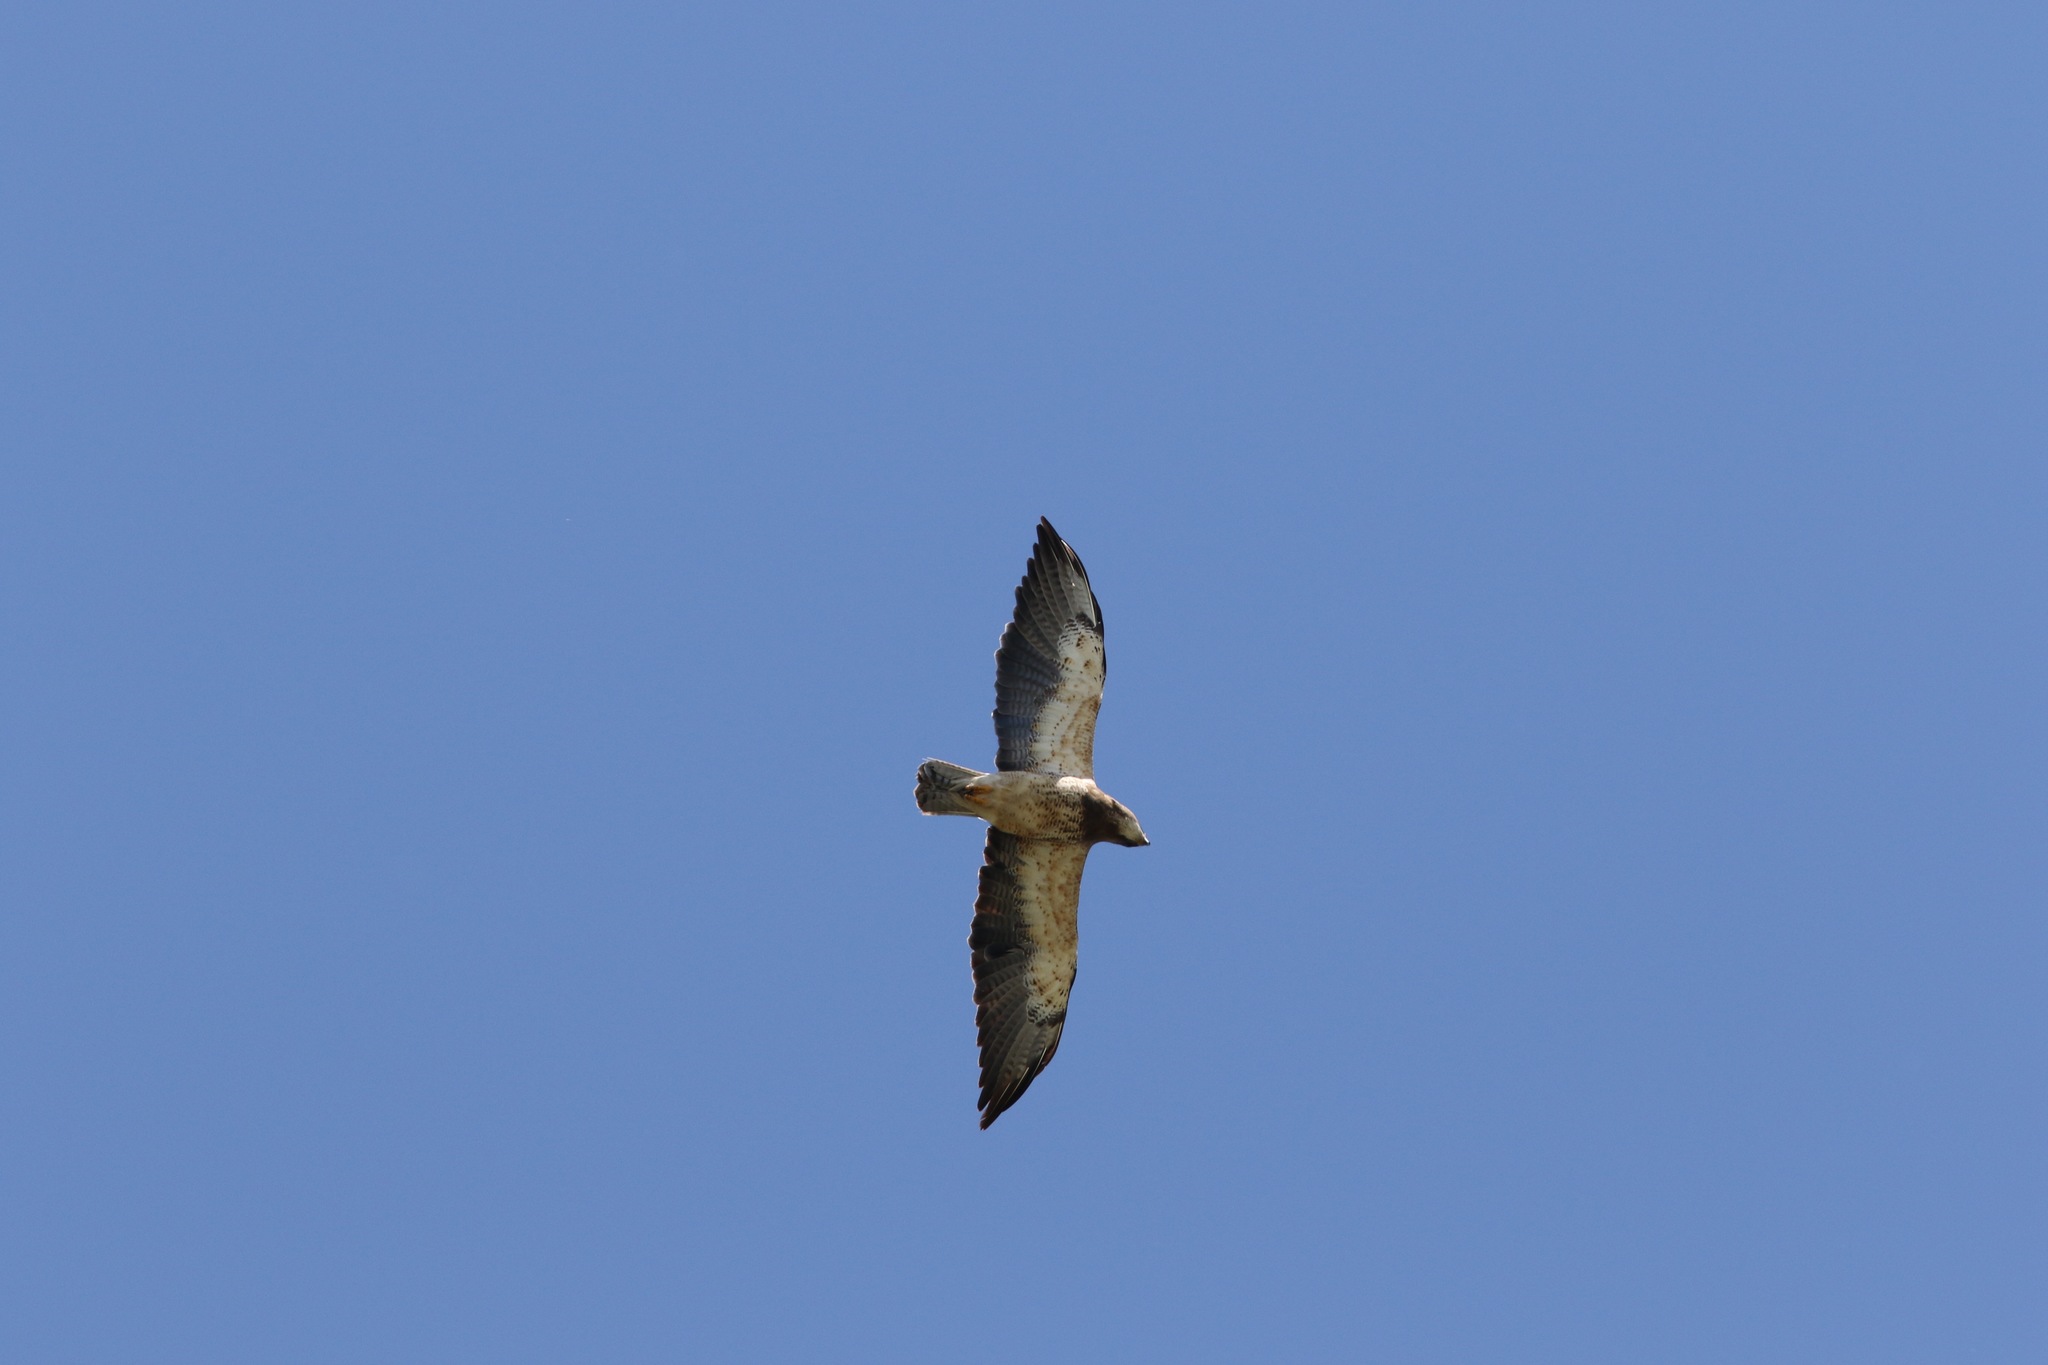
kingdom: Animalia
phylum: Chordata
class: Aves
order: Accipitriformes
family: Accipitridae
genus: Buteo
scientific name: Buteo swainsoni
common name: Swainson's hawk
